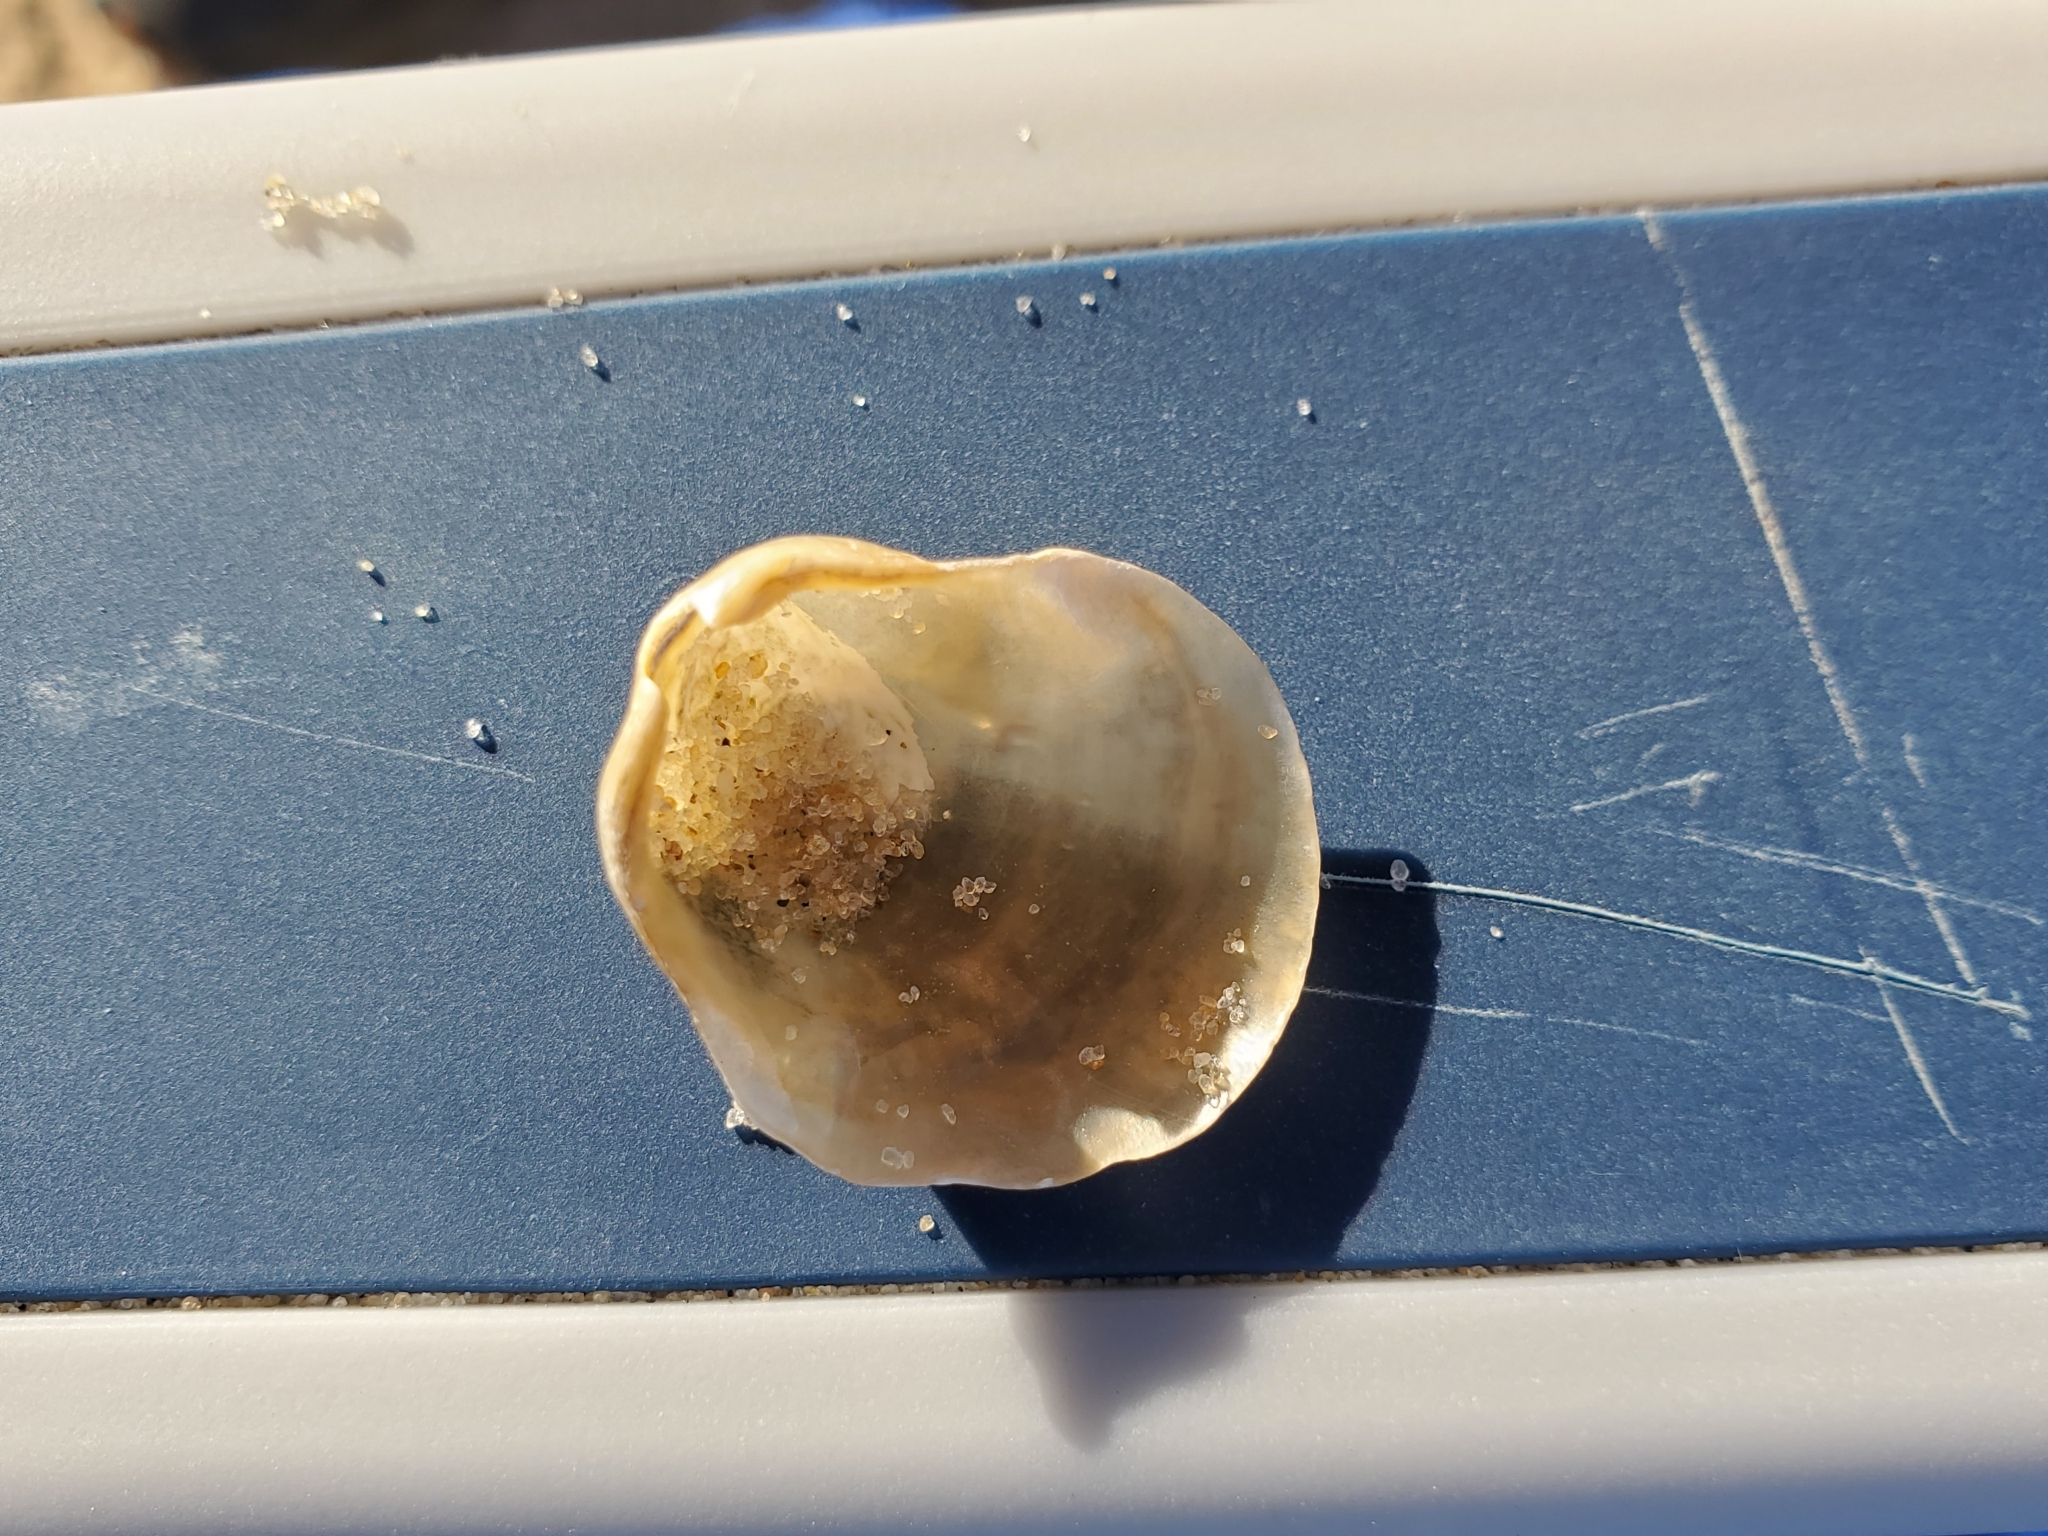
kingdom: Animalia
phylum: Mollusca
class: Bivalvia
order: Pectinida
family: Anomiidae
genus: Anomia
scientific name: Anomia simplex
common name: Common jingle shell
